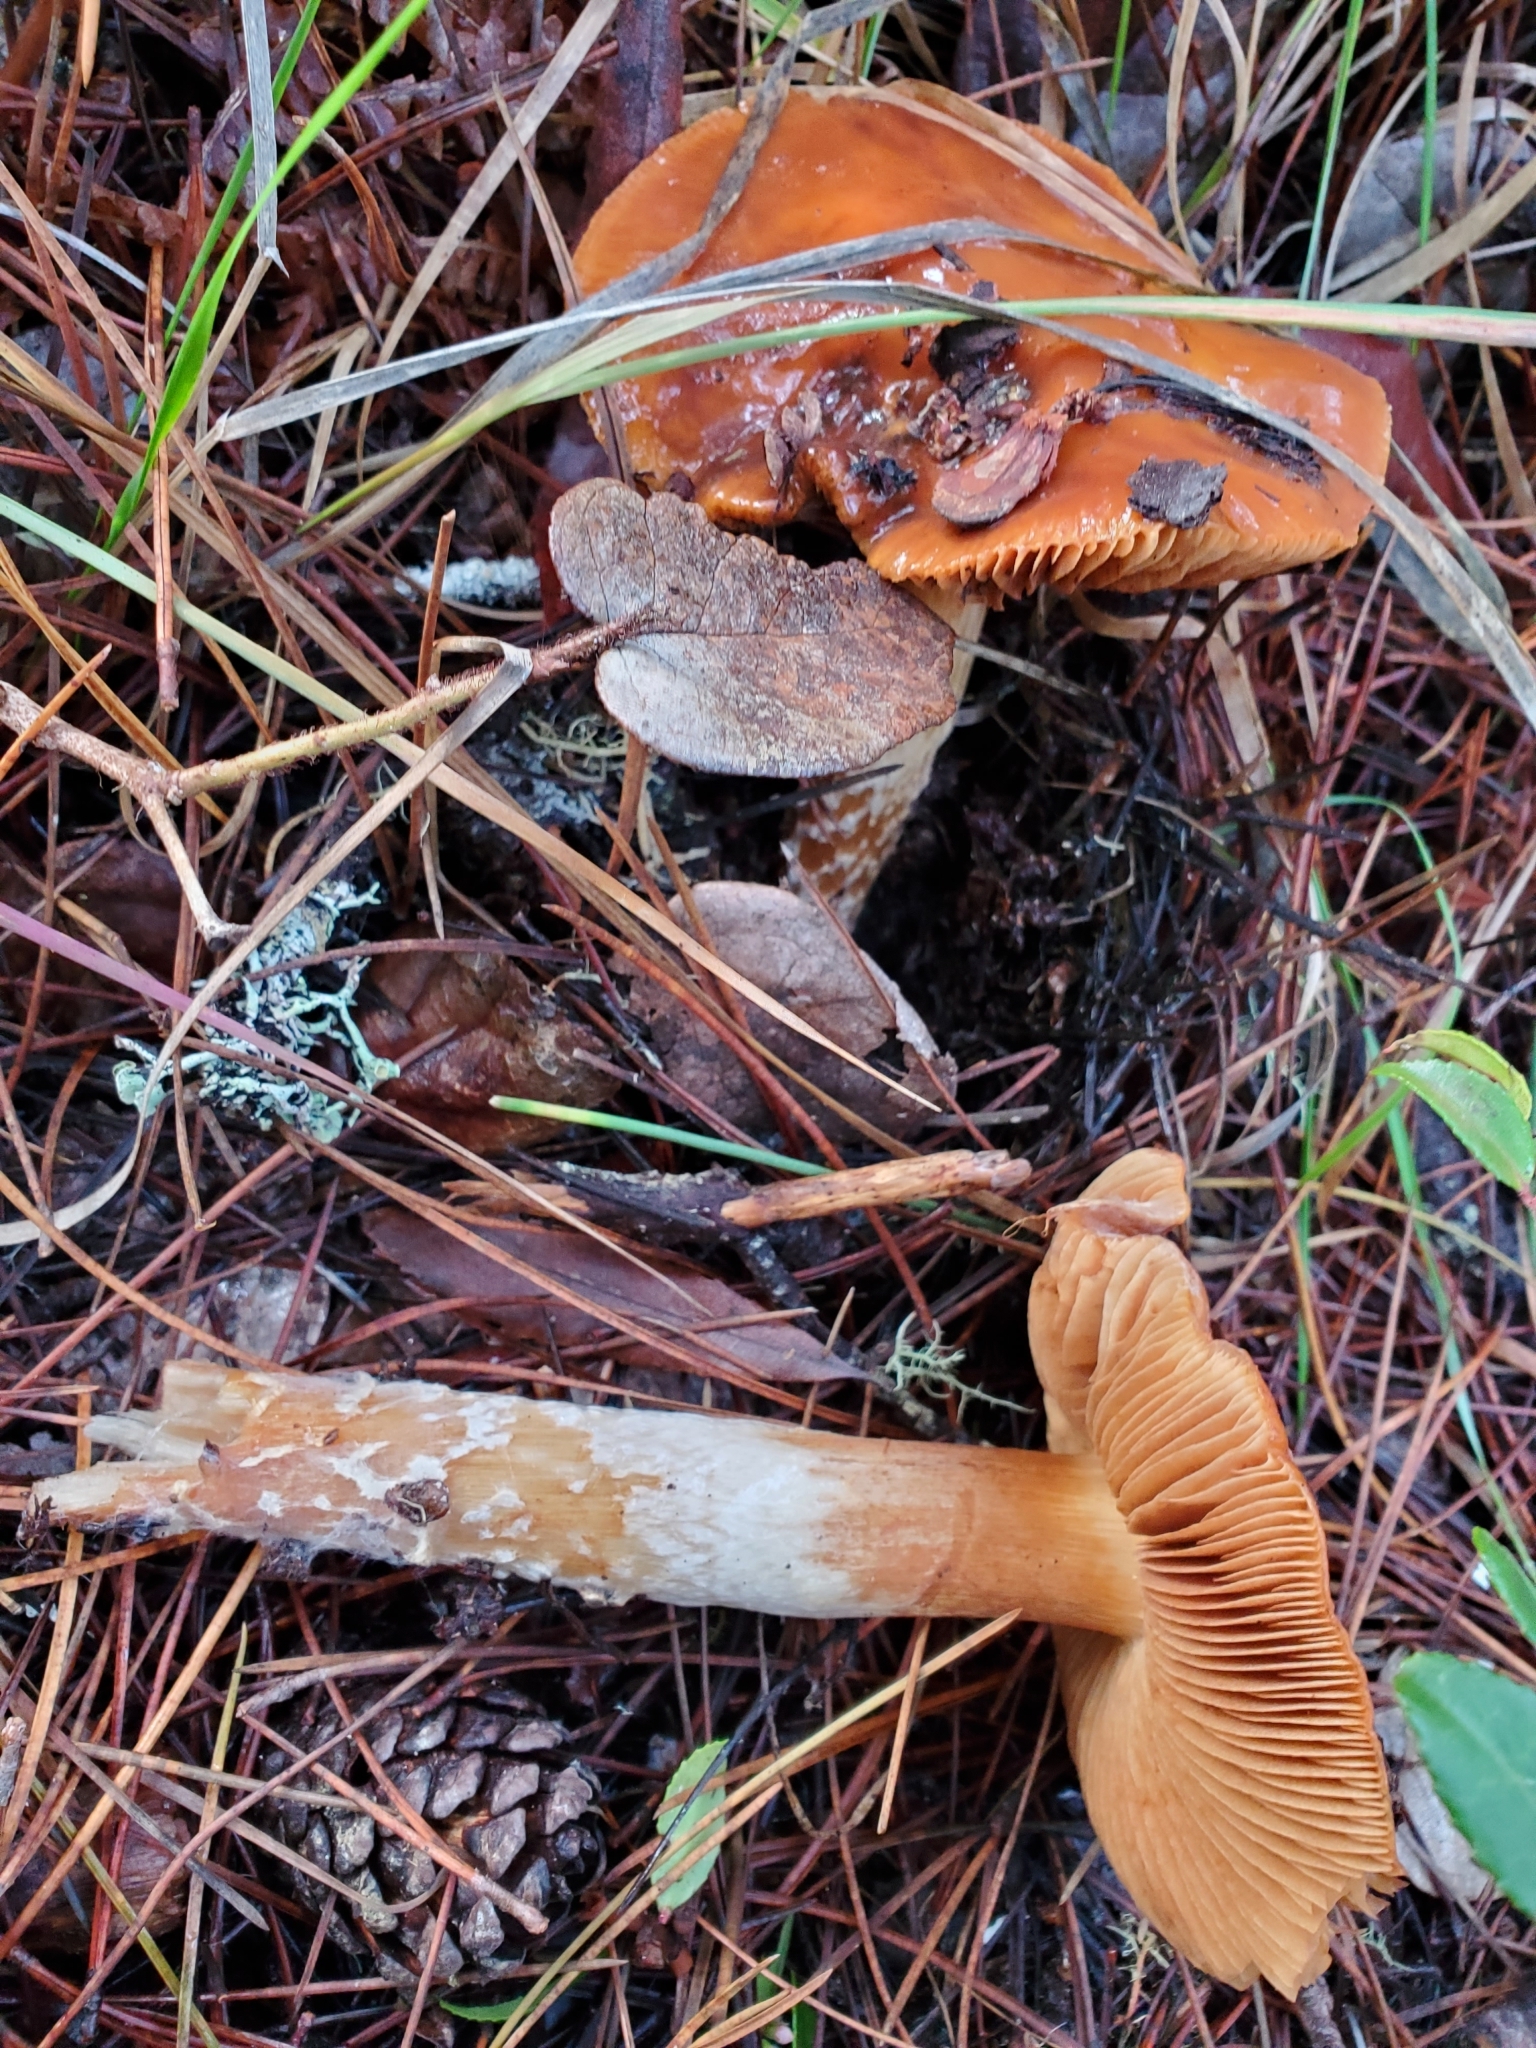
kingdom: Fungi
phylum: Basidiomycota
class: Agaricomycetes
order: Agaricales
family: Cortinariaceae
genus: Cortinarius
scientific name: Cortinarius mucosus
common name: Orange webcap
